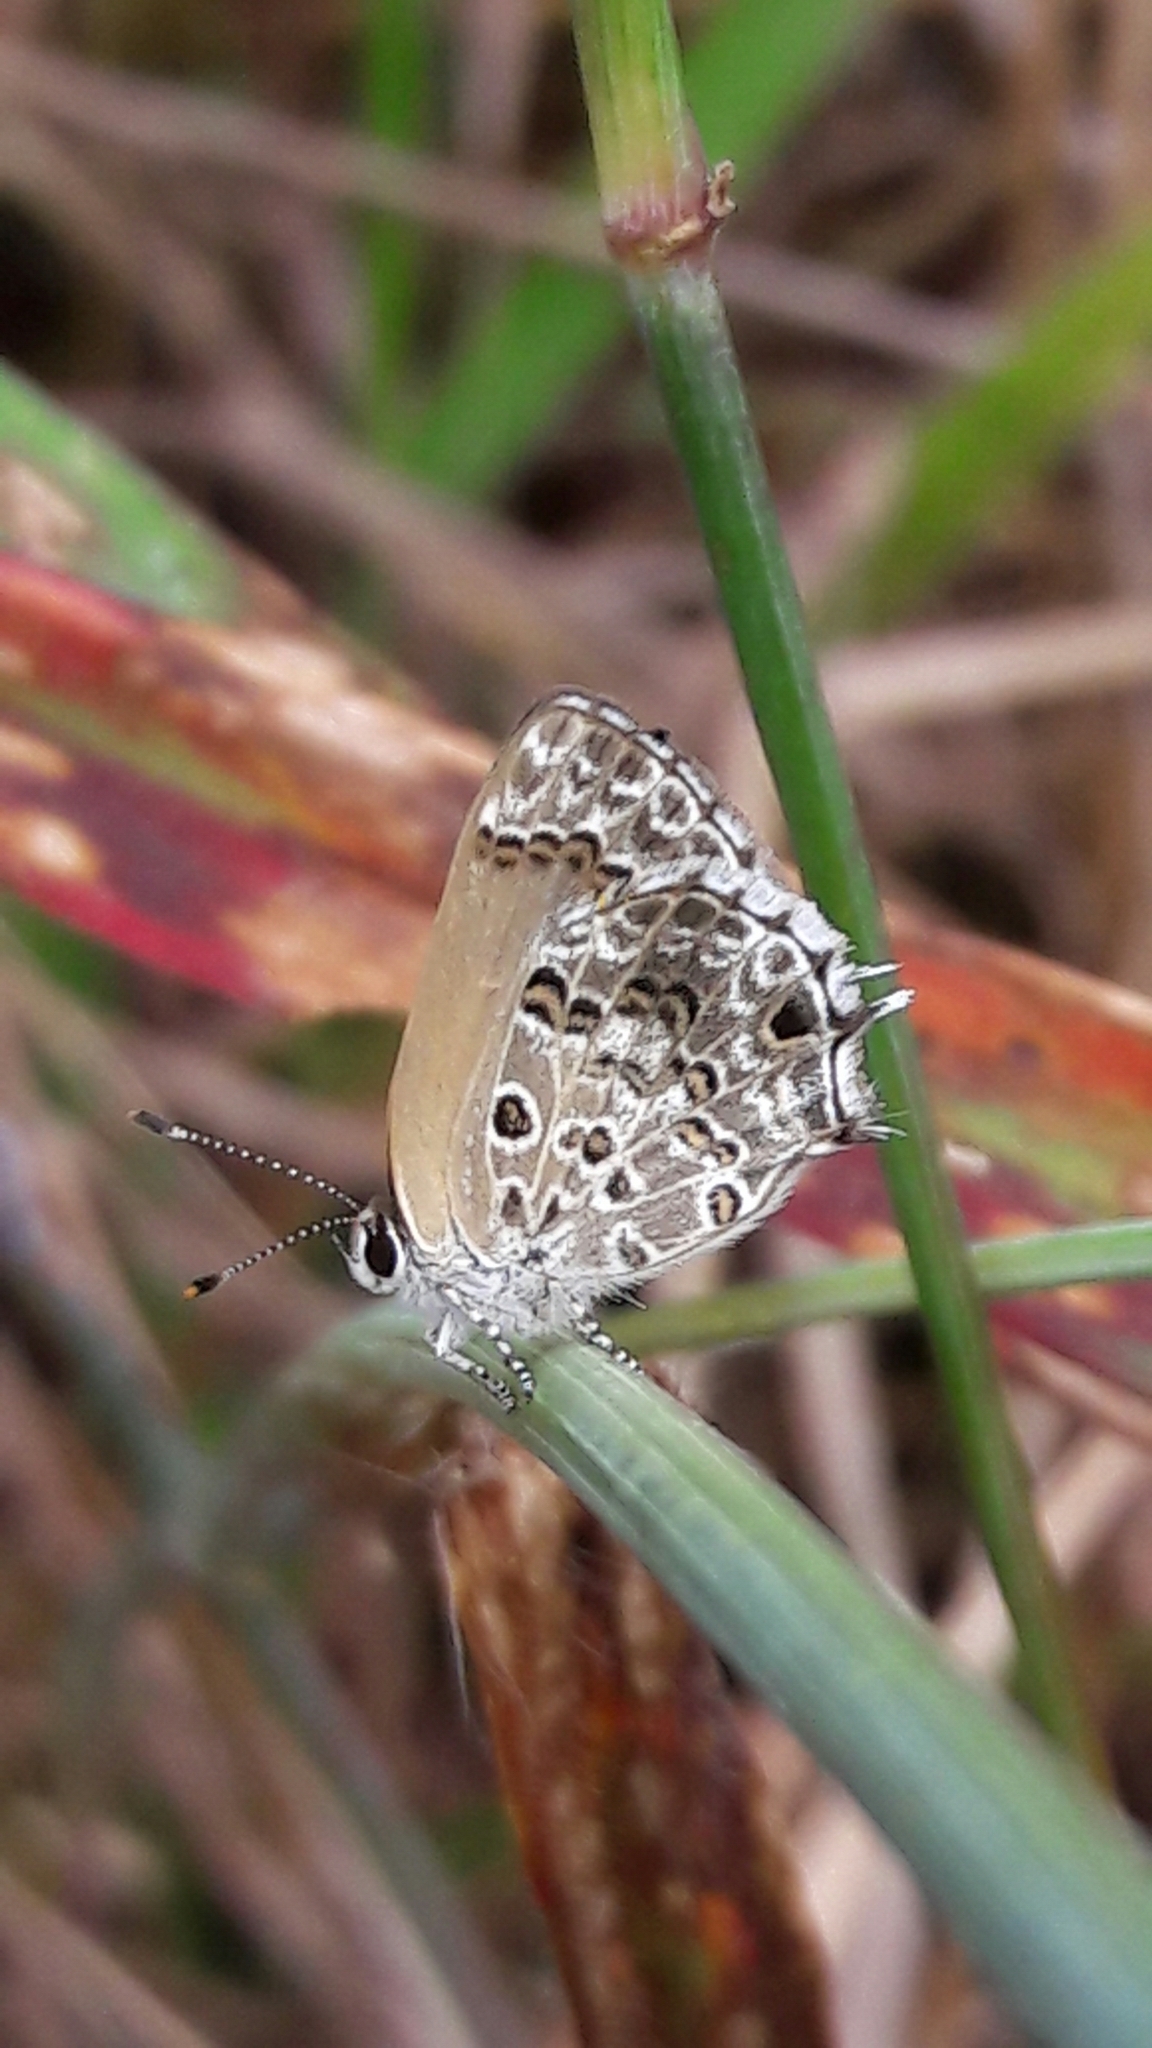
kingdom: Animalia
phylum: Arthropoda
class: Insecta
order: Lepidoptera
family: Lycaenidae
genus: Strymon
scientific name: Strymon astiocha
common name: Gray-spotted scrub-hairstreak
